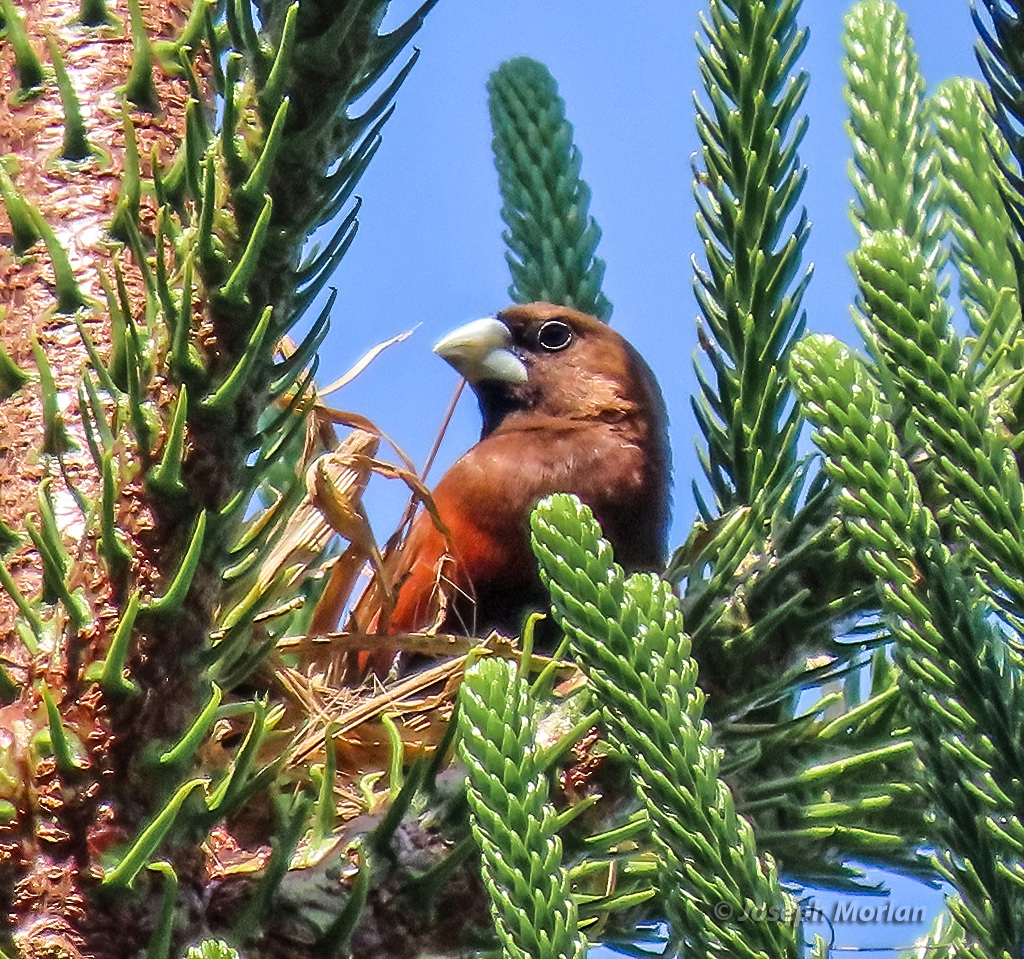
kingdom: Animalia
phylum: Chordata
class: Aves
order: Passeriformes
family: Estrildidae
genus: Lonchura
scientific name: Lonchura atricapilla
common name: Chestnut munia
